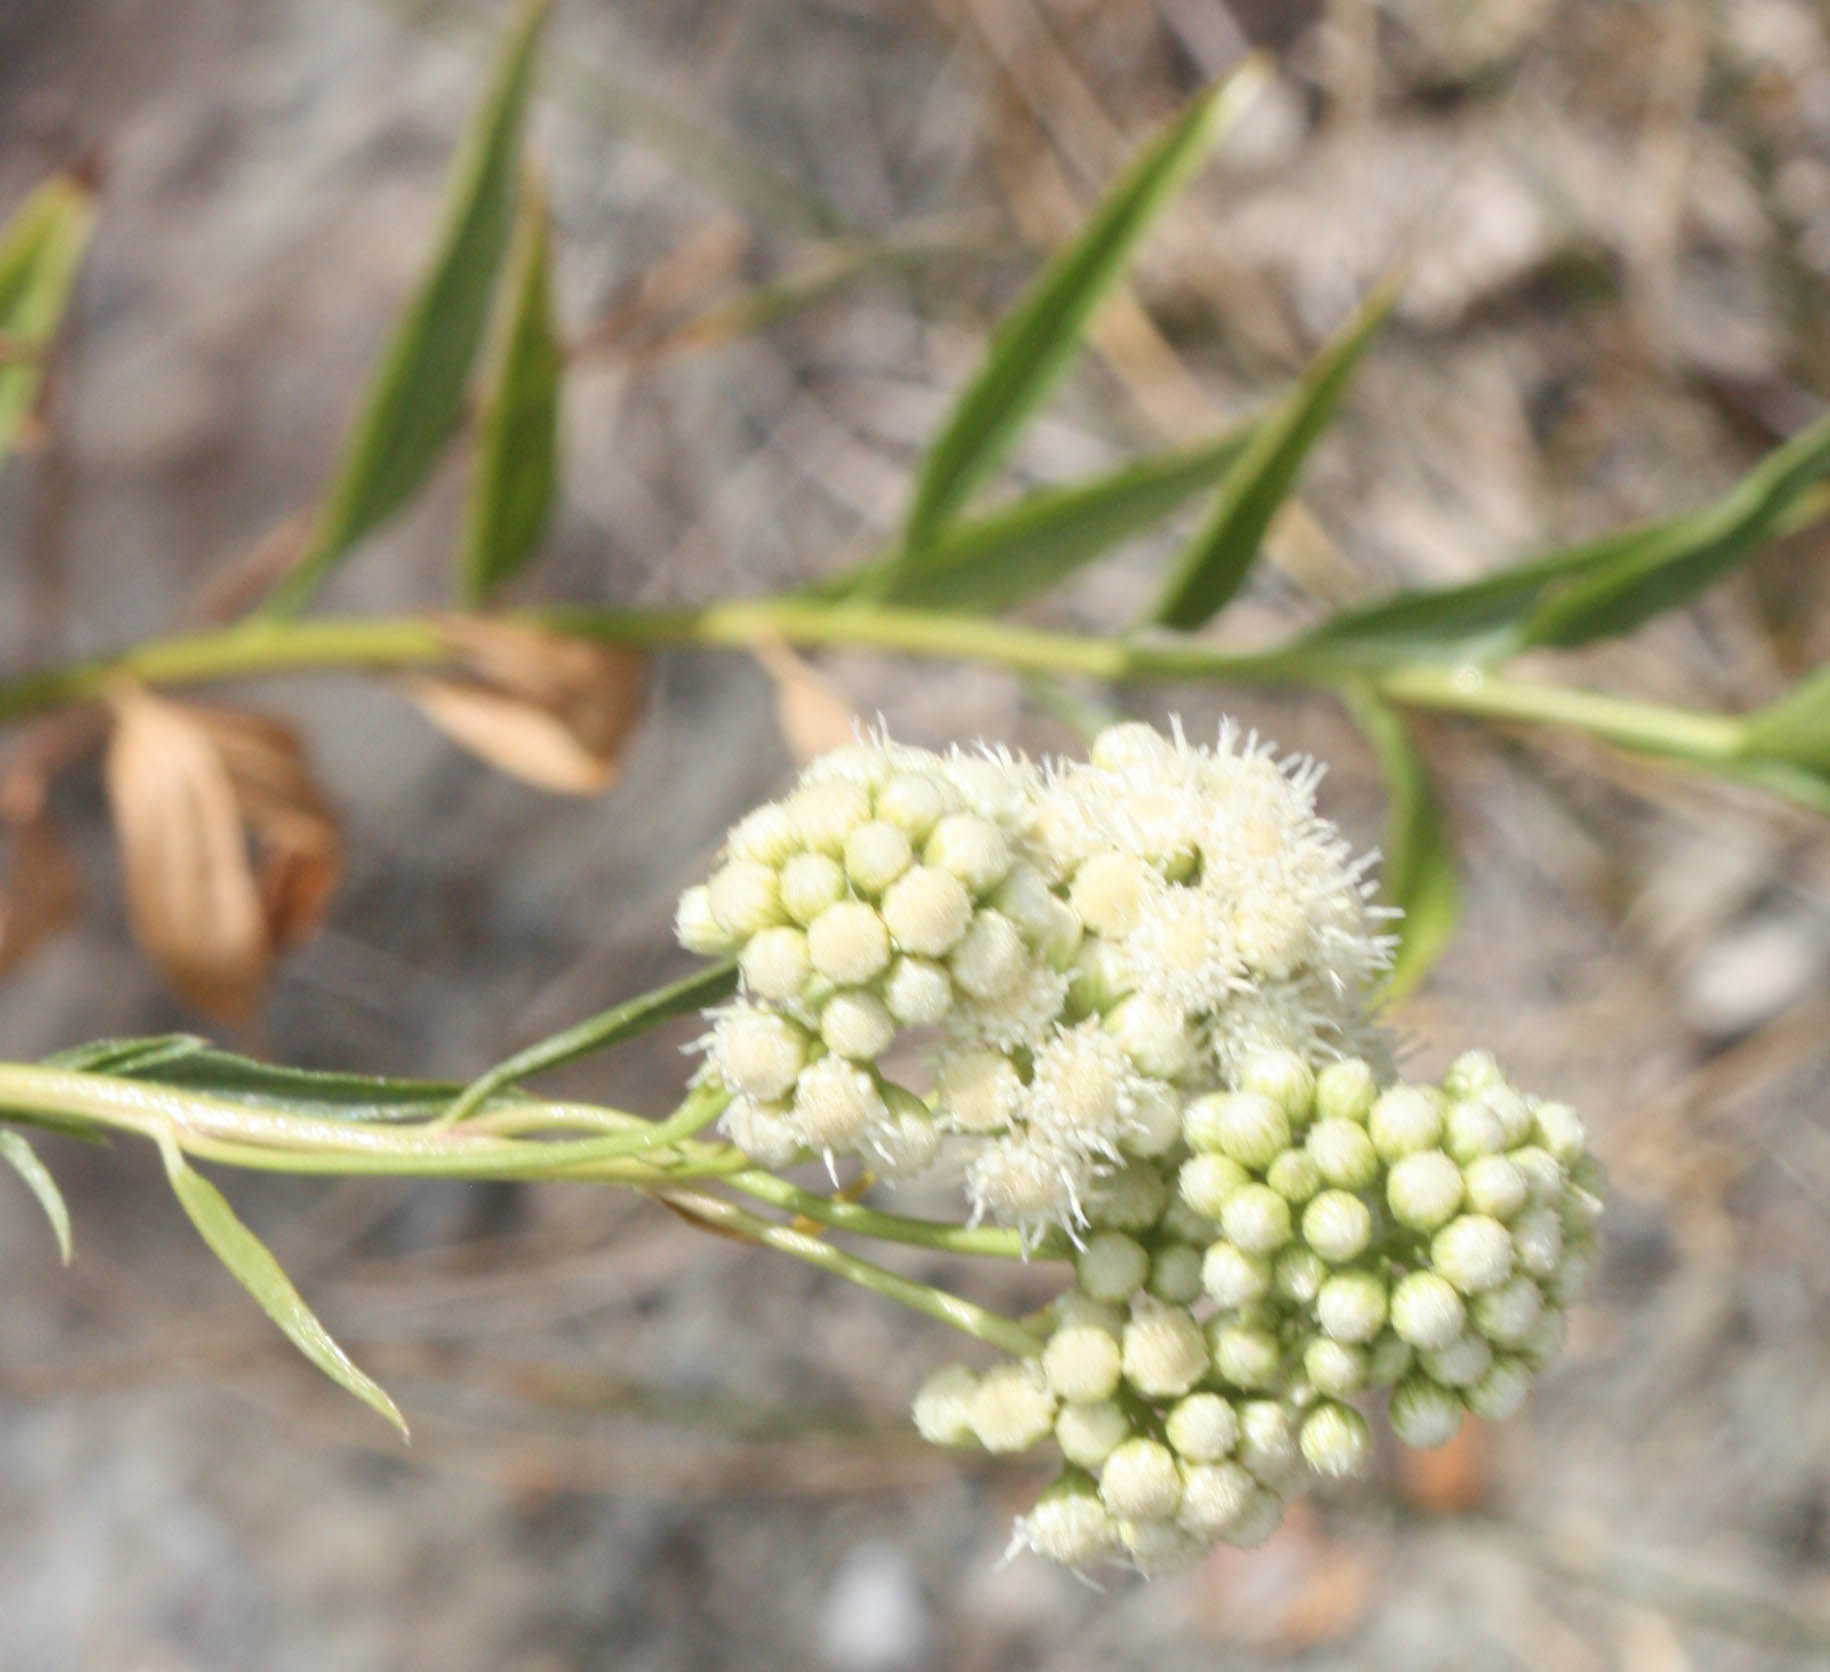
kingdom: Plantae
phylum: Tracheophyta
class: Magnoliopsida
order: Asterales
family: Asteraceae
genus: Baccharis
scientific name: Baccharis glutinosa
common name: Saltmarsh baccharis
